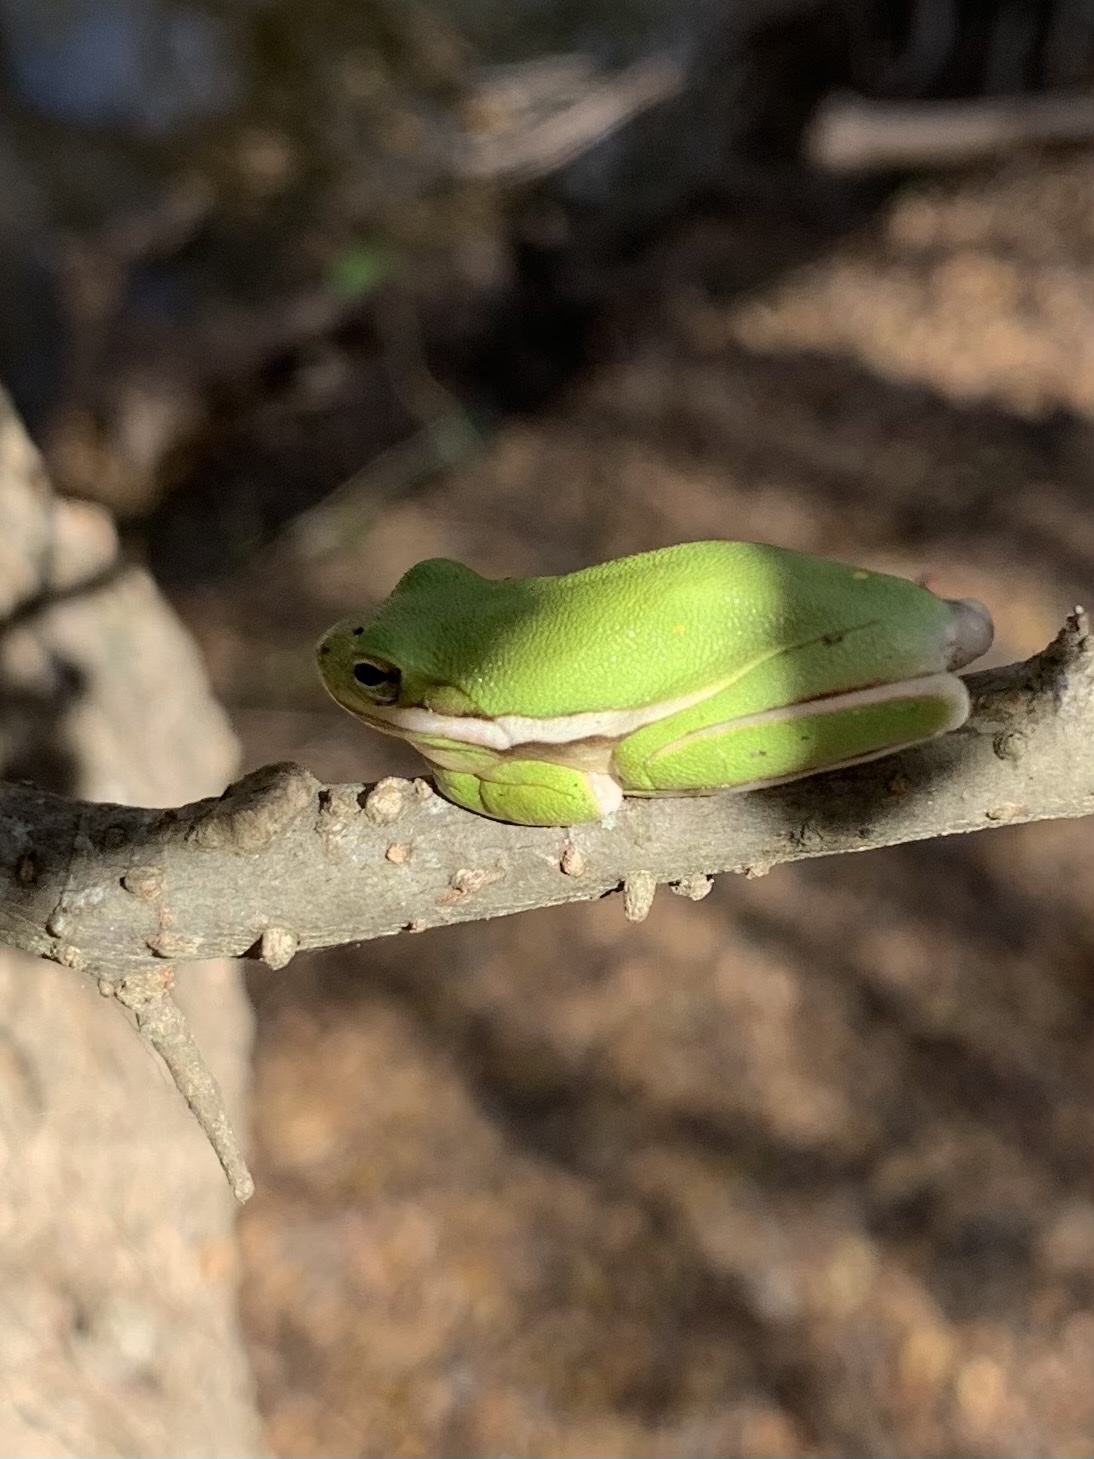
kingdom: Animalia
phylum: Chordata
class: Amphibia
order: Anura
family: Hylidae
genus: Dryophytes
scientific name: Dryophytes cinereus
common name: Green treefrog
